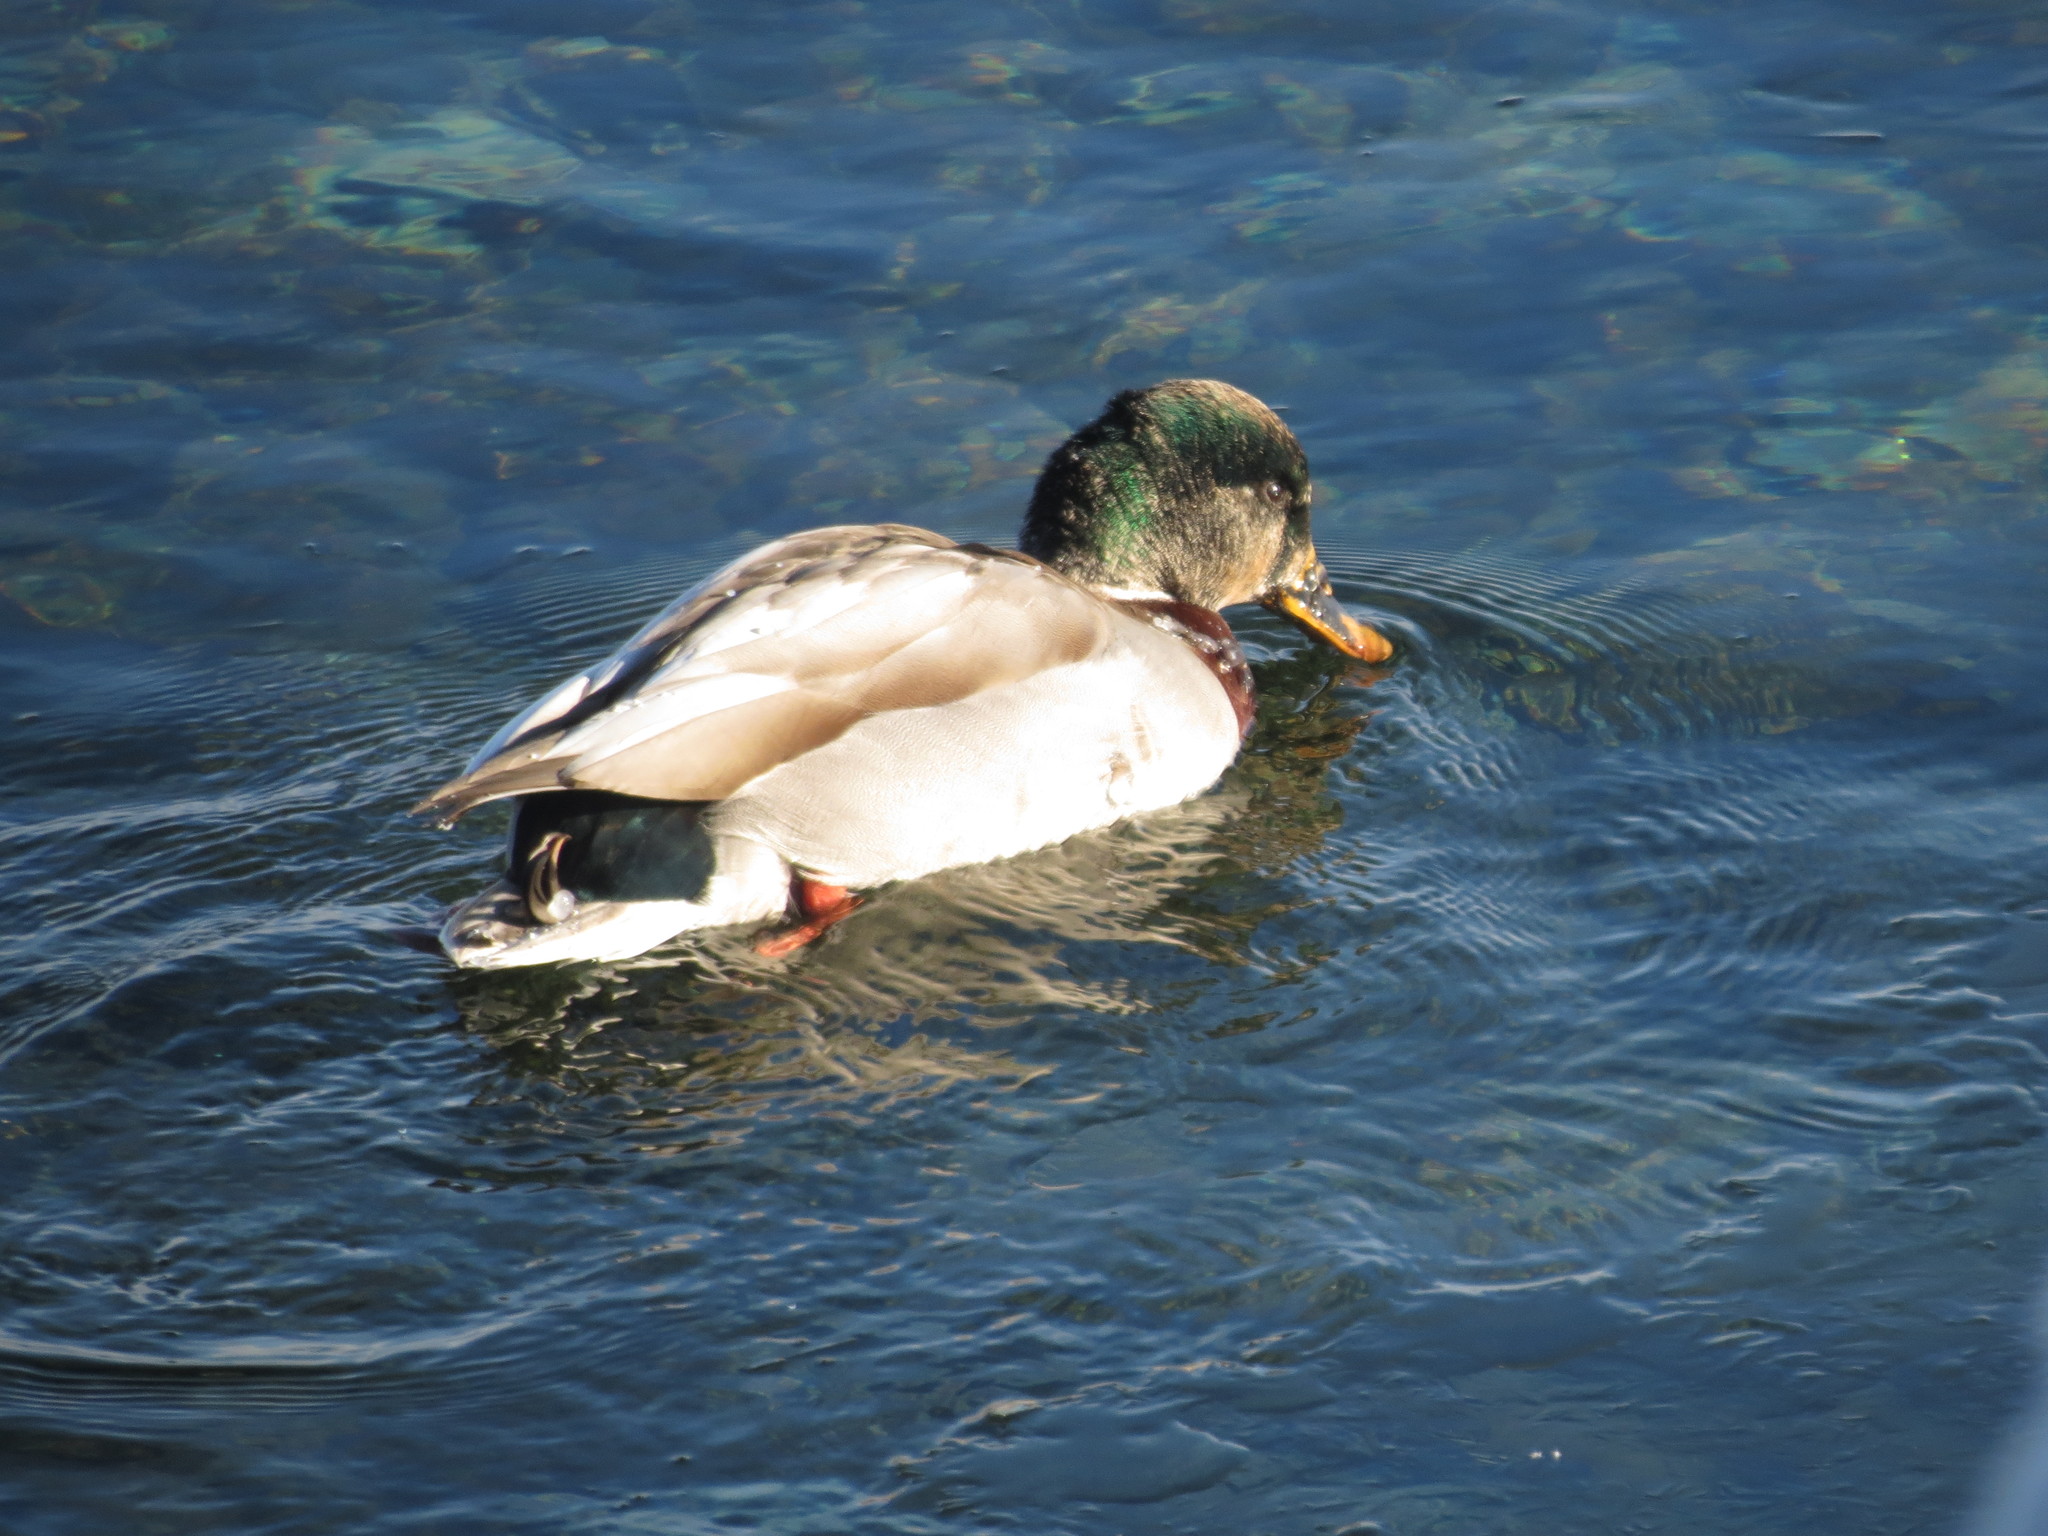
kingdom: Animalia
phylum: Chordata
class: Aves
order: Anseriformes
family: Anatidae
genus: Anas
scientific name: Anas platyrhynchos
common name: Mallard
